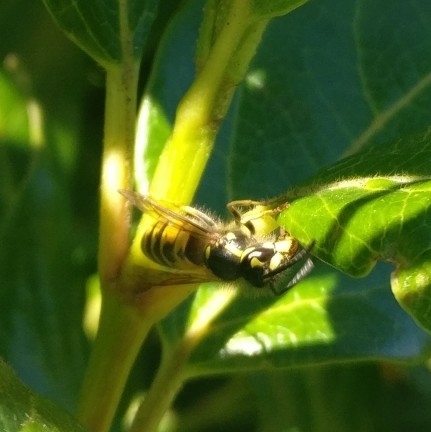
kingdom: Animalia
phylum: Arthropoda
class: Insecta
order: Hymenoptera
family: Vespidae
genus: Vespula
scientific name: Vespula vulgaris
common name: Common wasp
